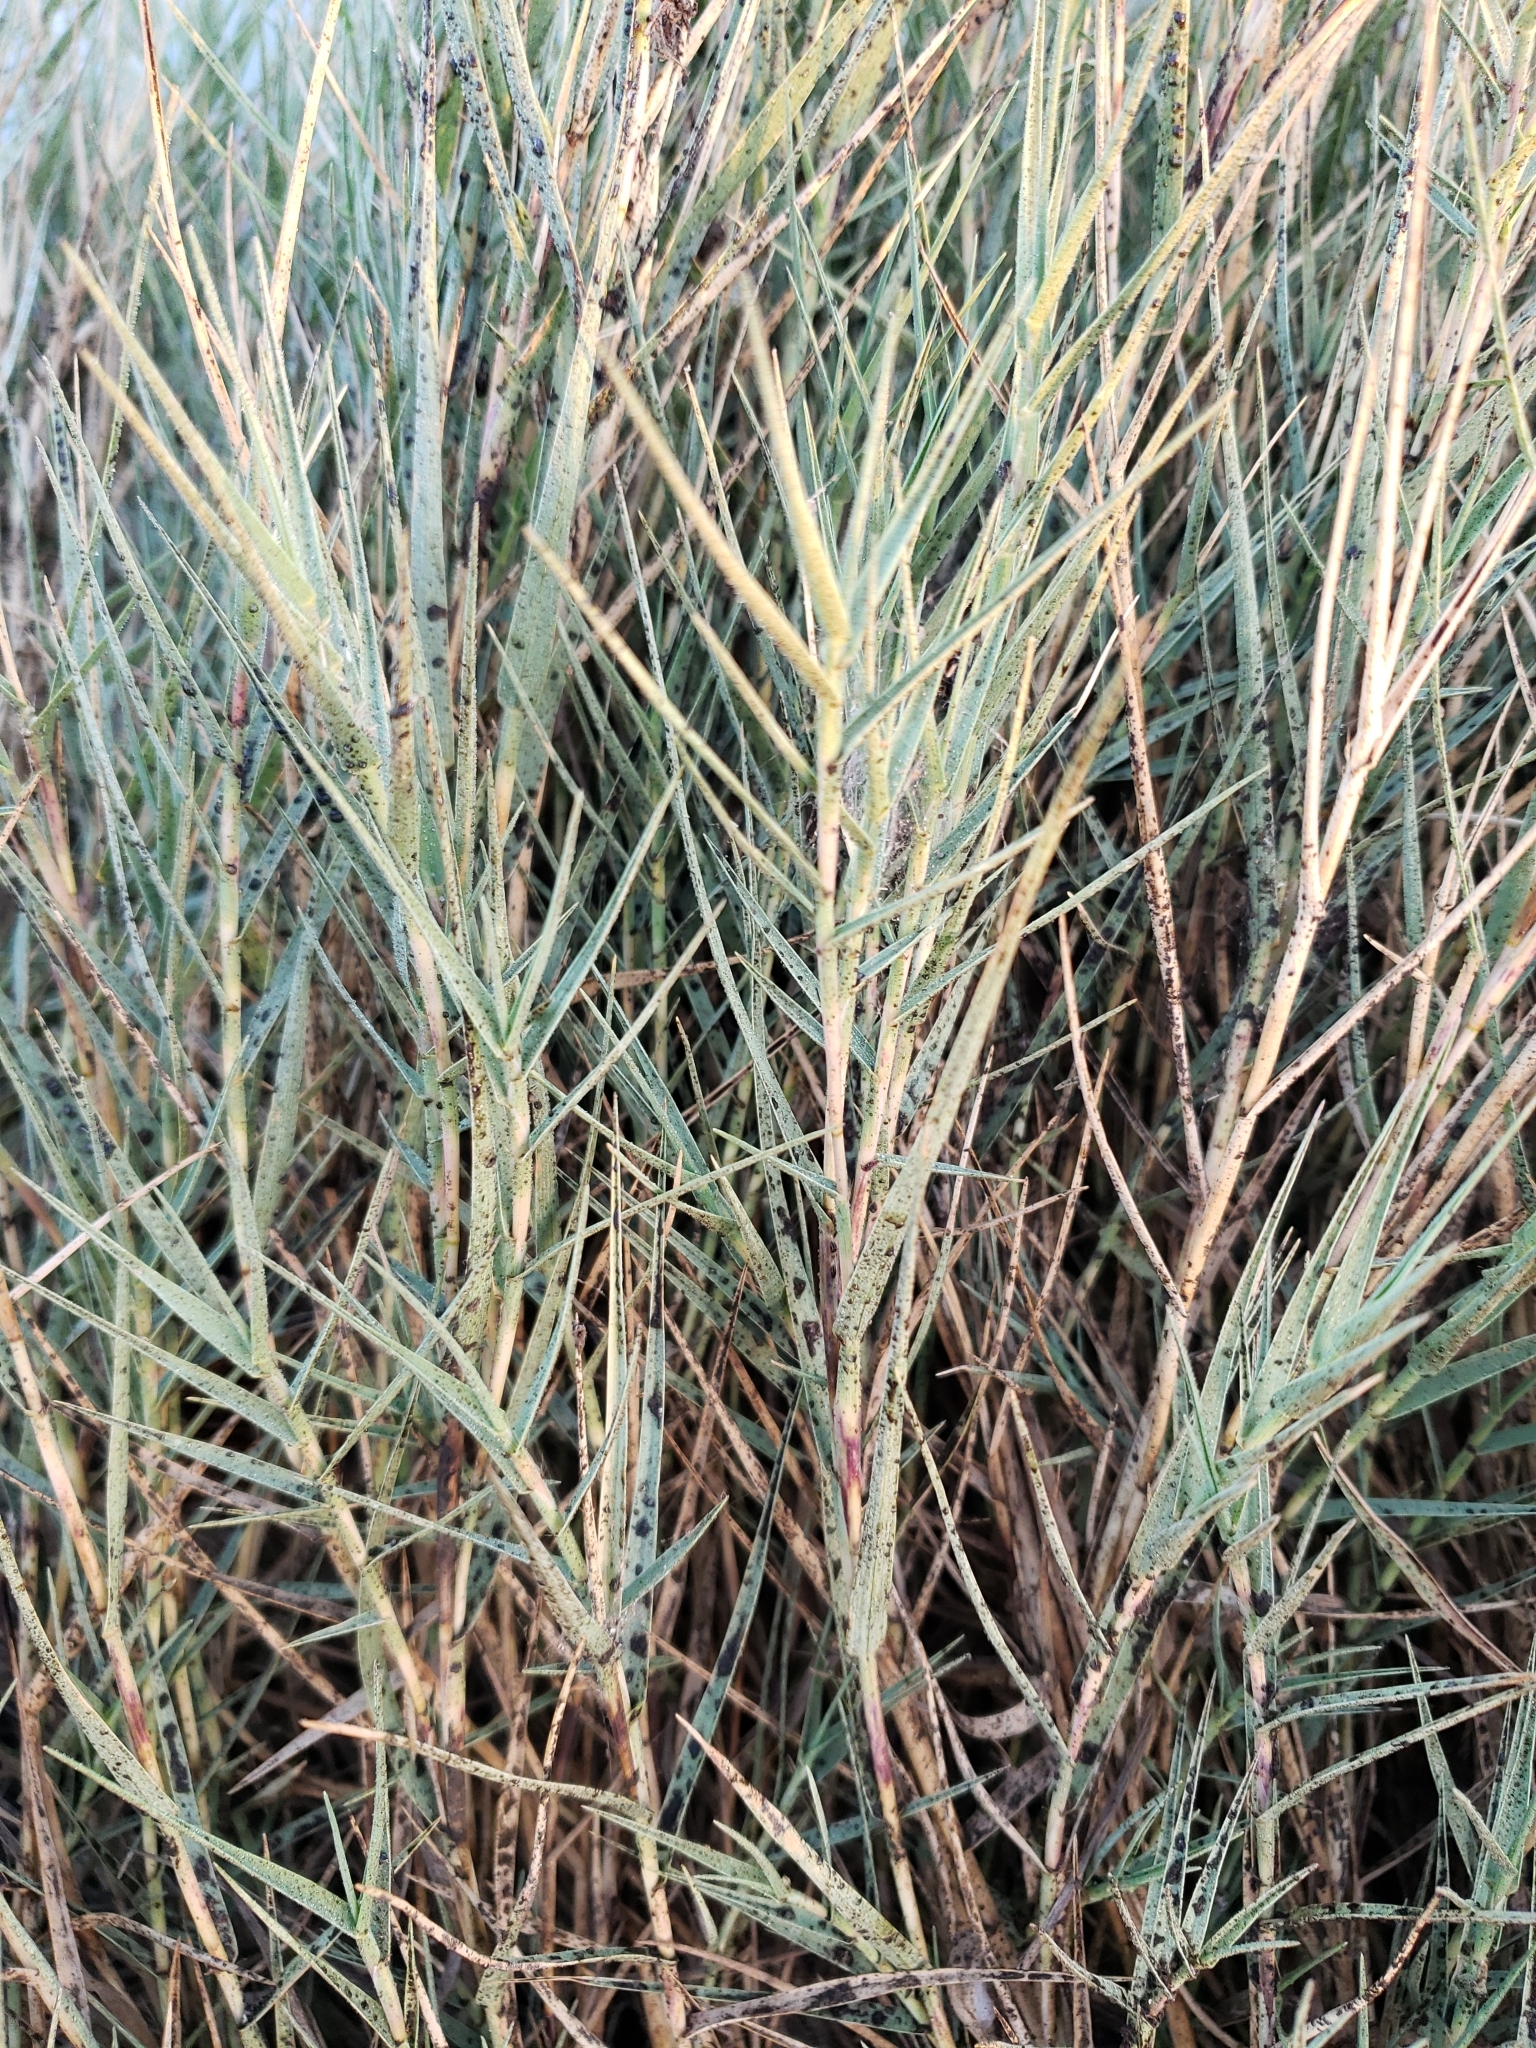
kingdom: Plantae
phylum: Tracheophyta
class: Liliopsida
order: Poales
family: Poaceae
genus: Distichlis
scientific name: Distichlis spicata
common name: Saltgrass
